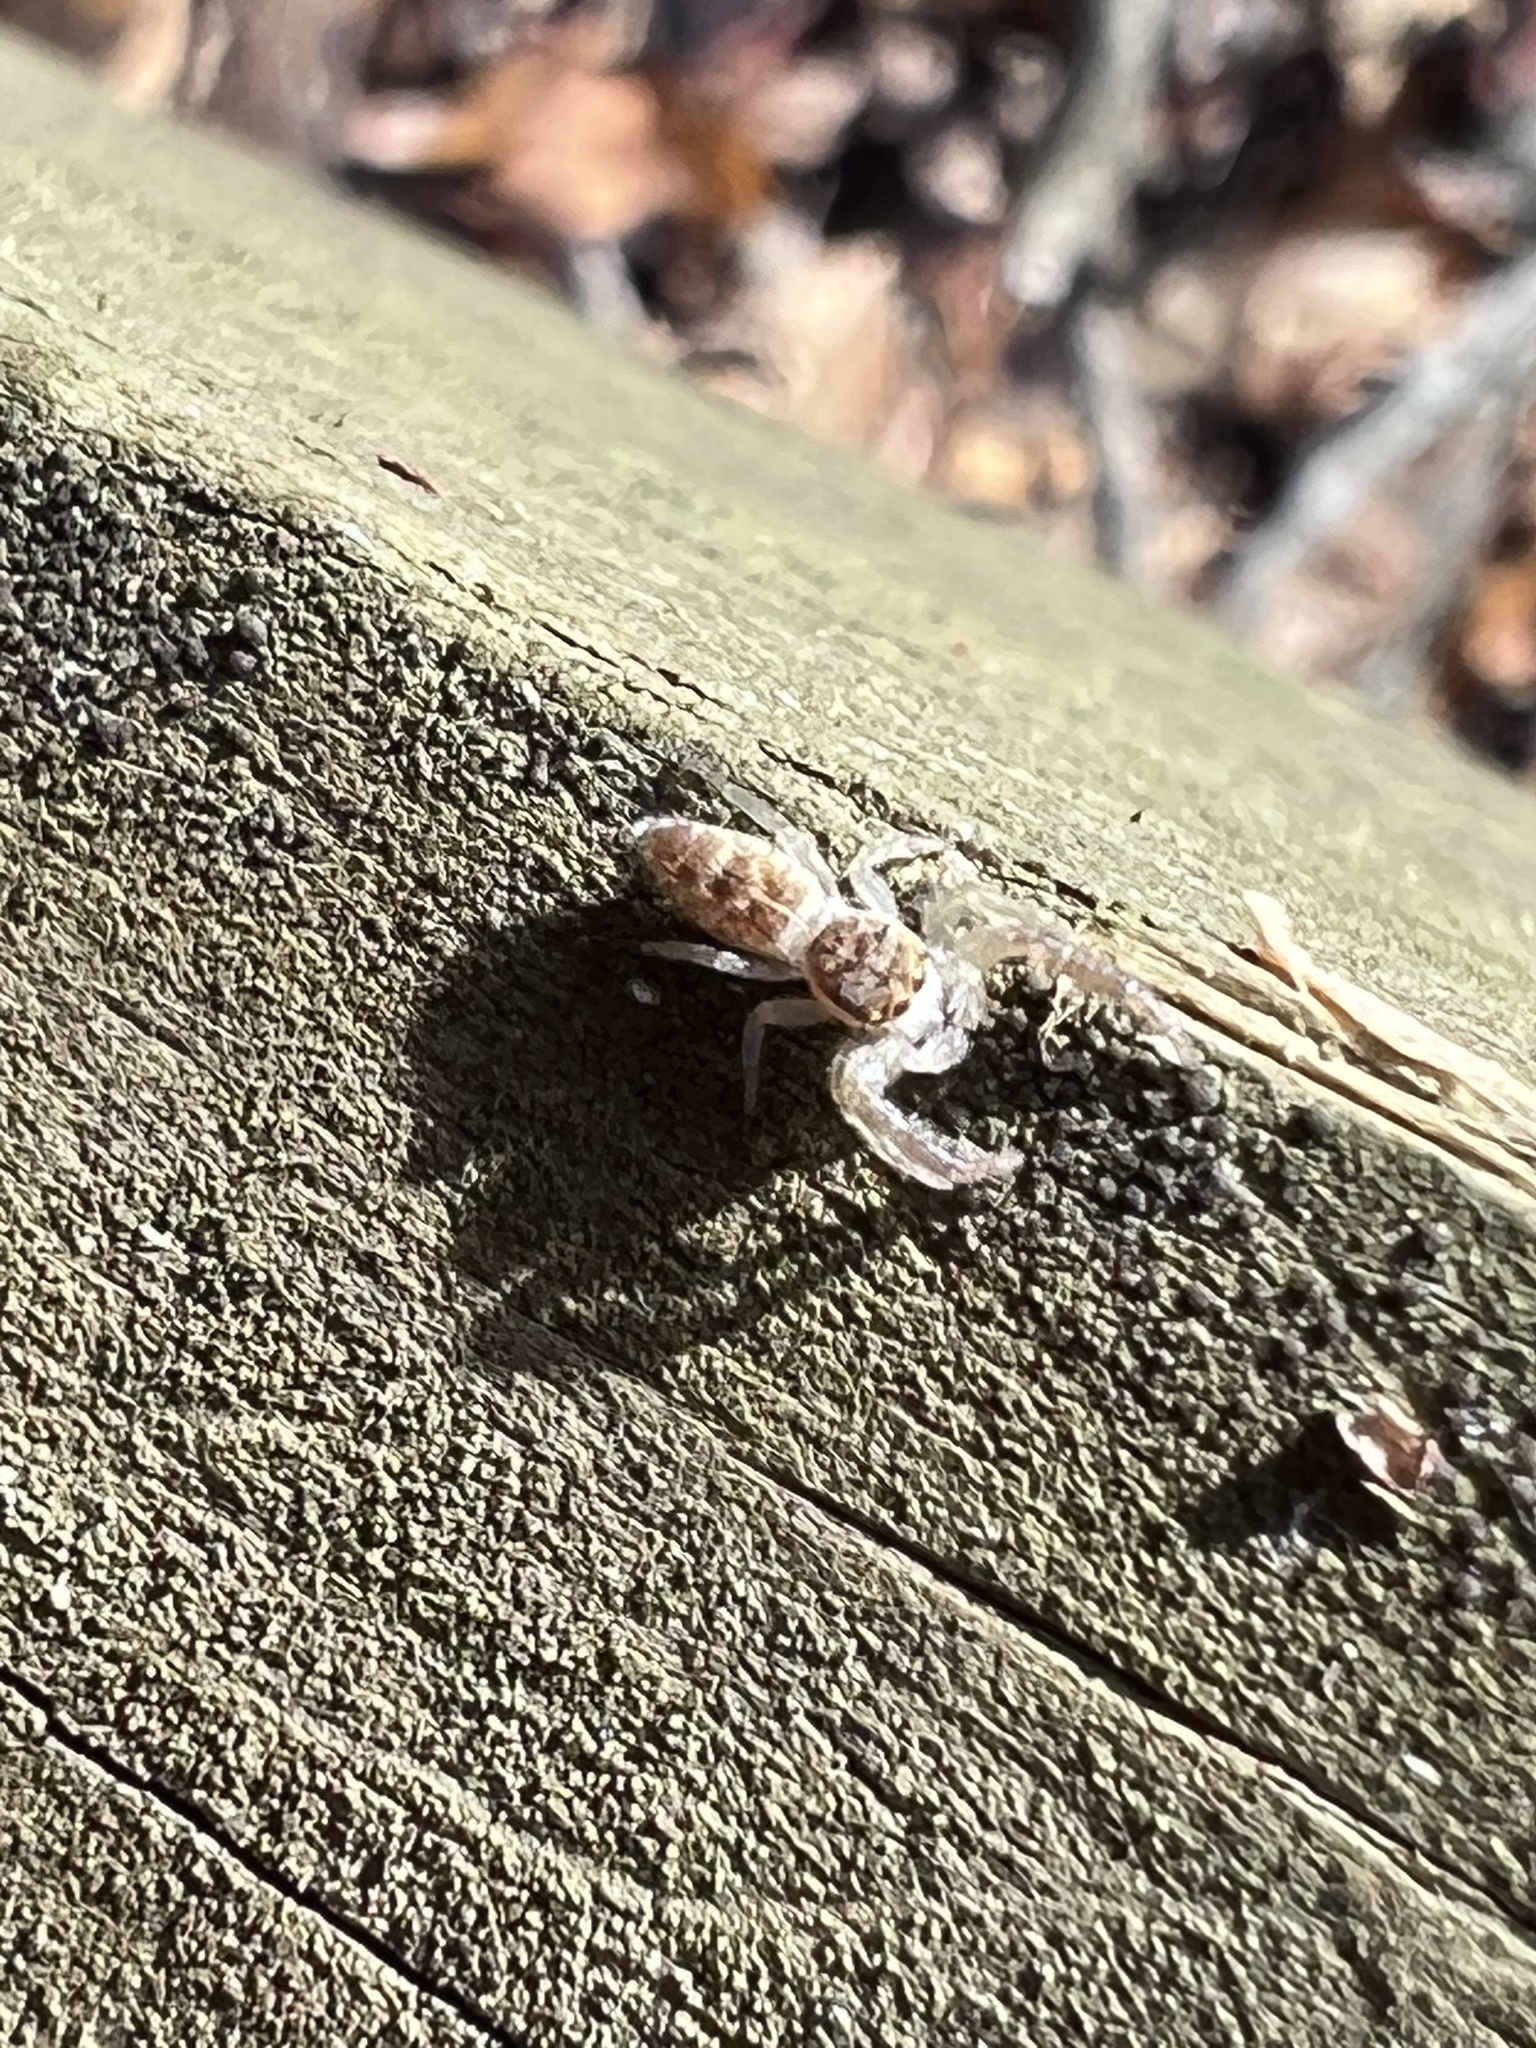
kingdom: Animalia
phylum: Arthropoda
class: Arachnida
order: Araneae
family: Salticidae
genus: Hentzia
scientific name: Hentzia mitrata
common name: White-jawed jumping spider
